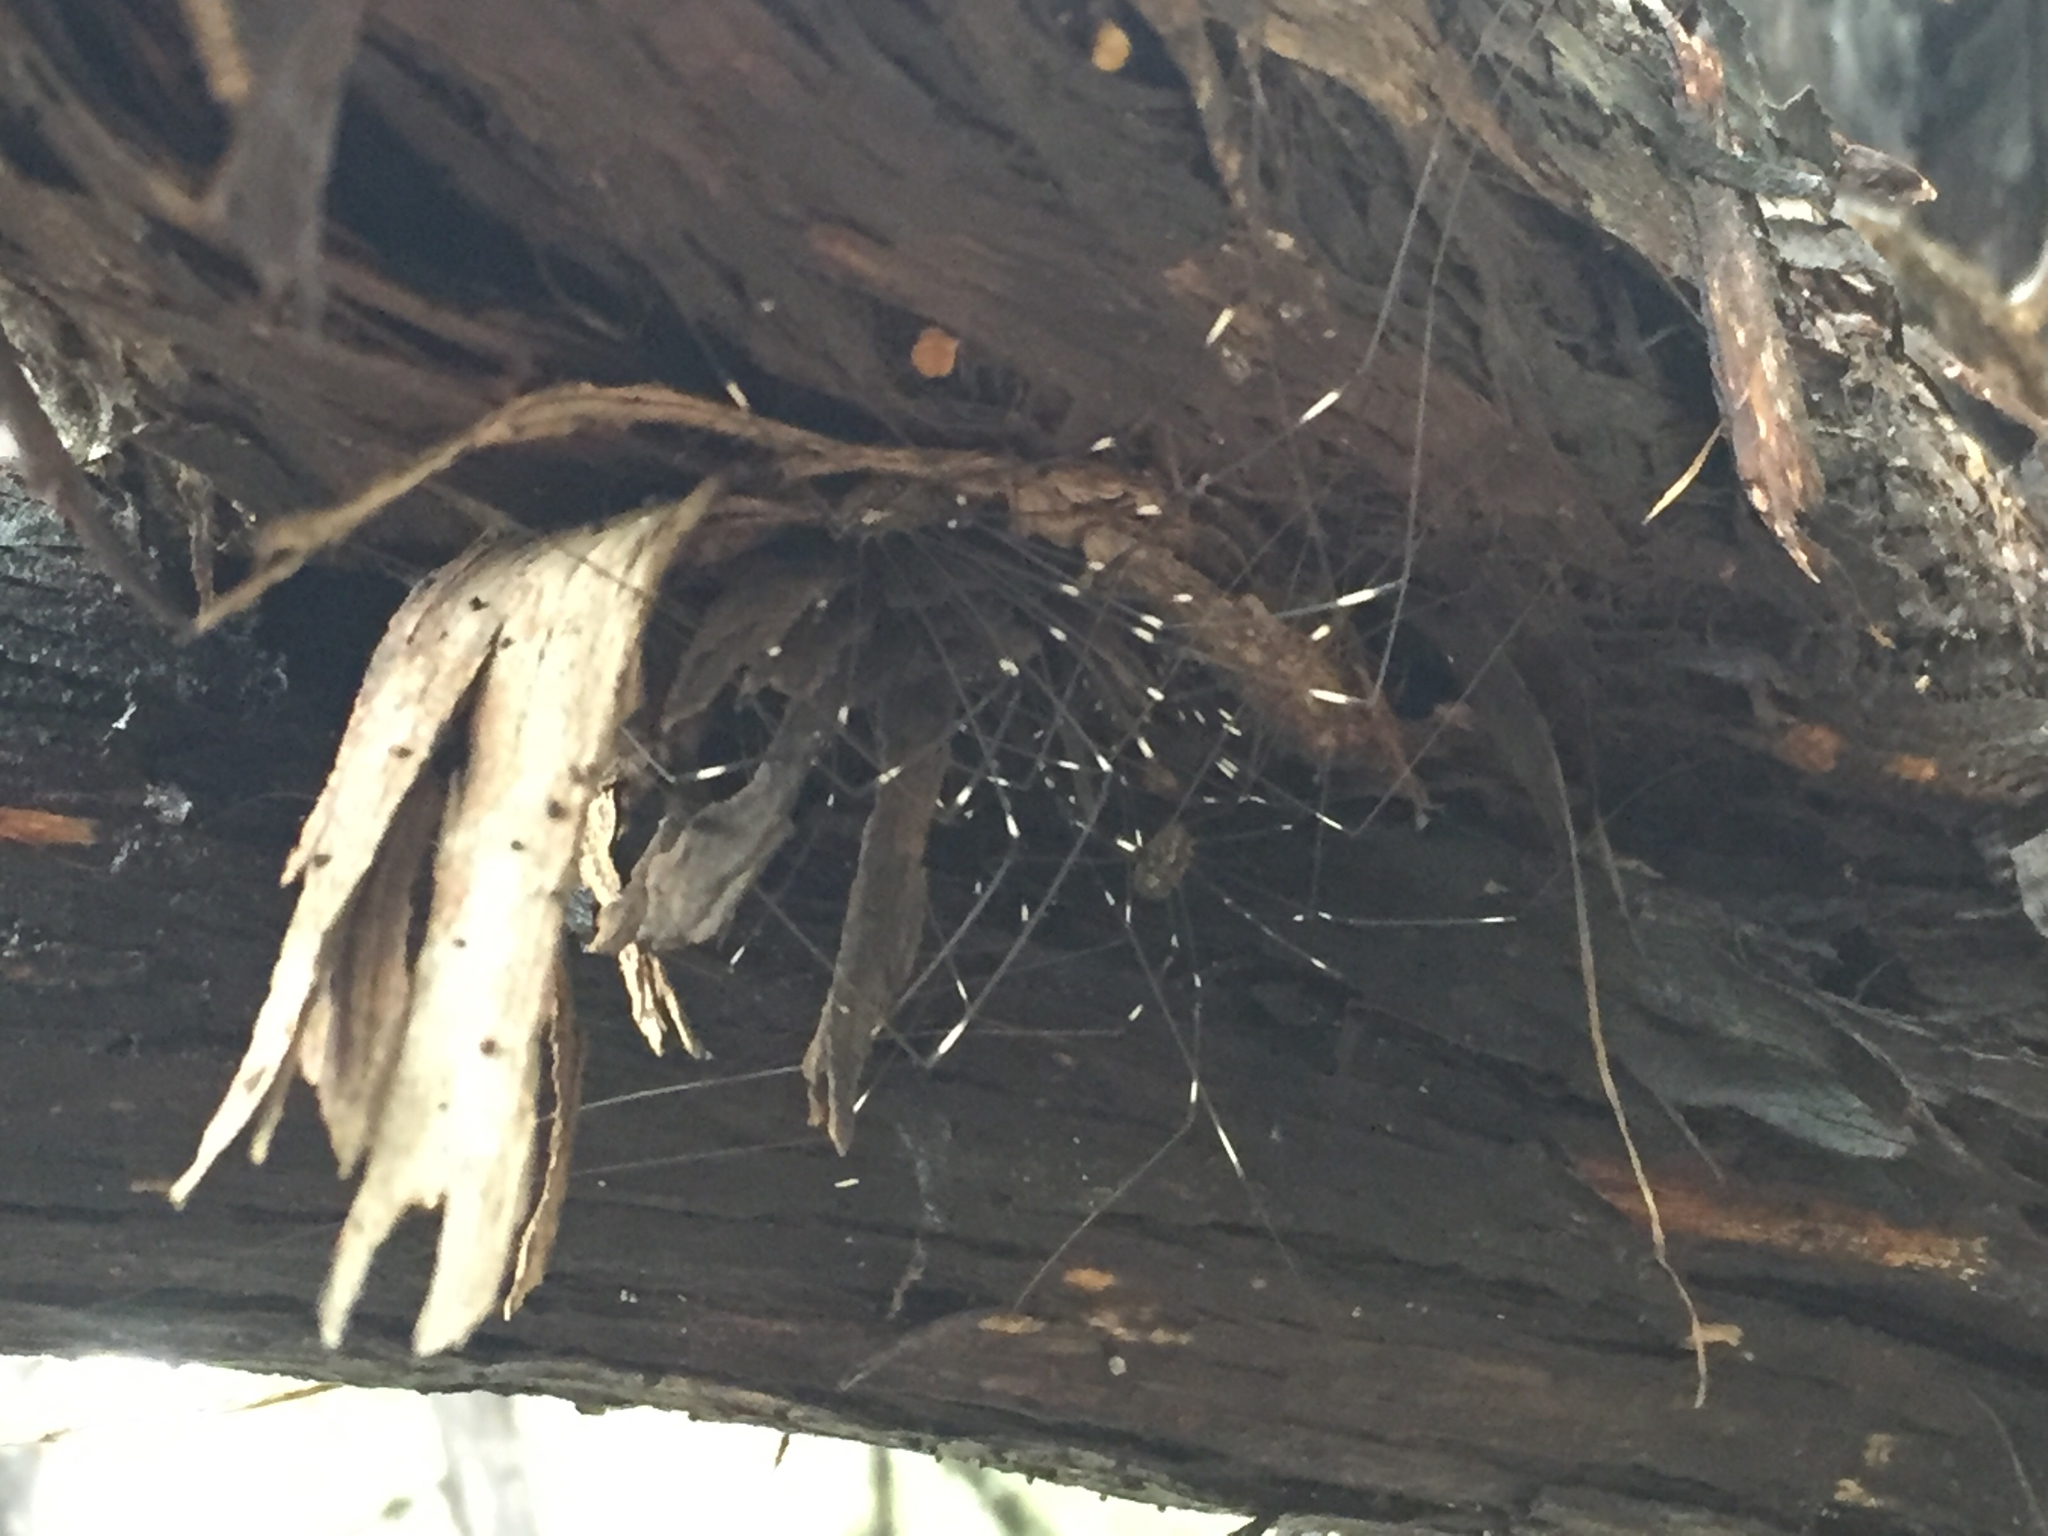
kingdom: Animalia
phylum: Arthropoda
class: Arachnida
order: Opiliones
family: Sclerosomatidae
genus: Leiobunum
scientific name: Leiobunum townsendi
